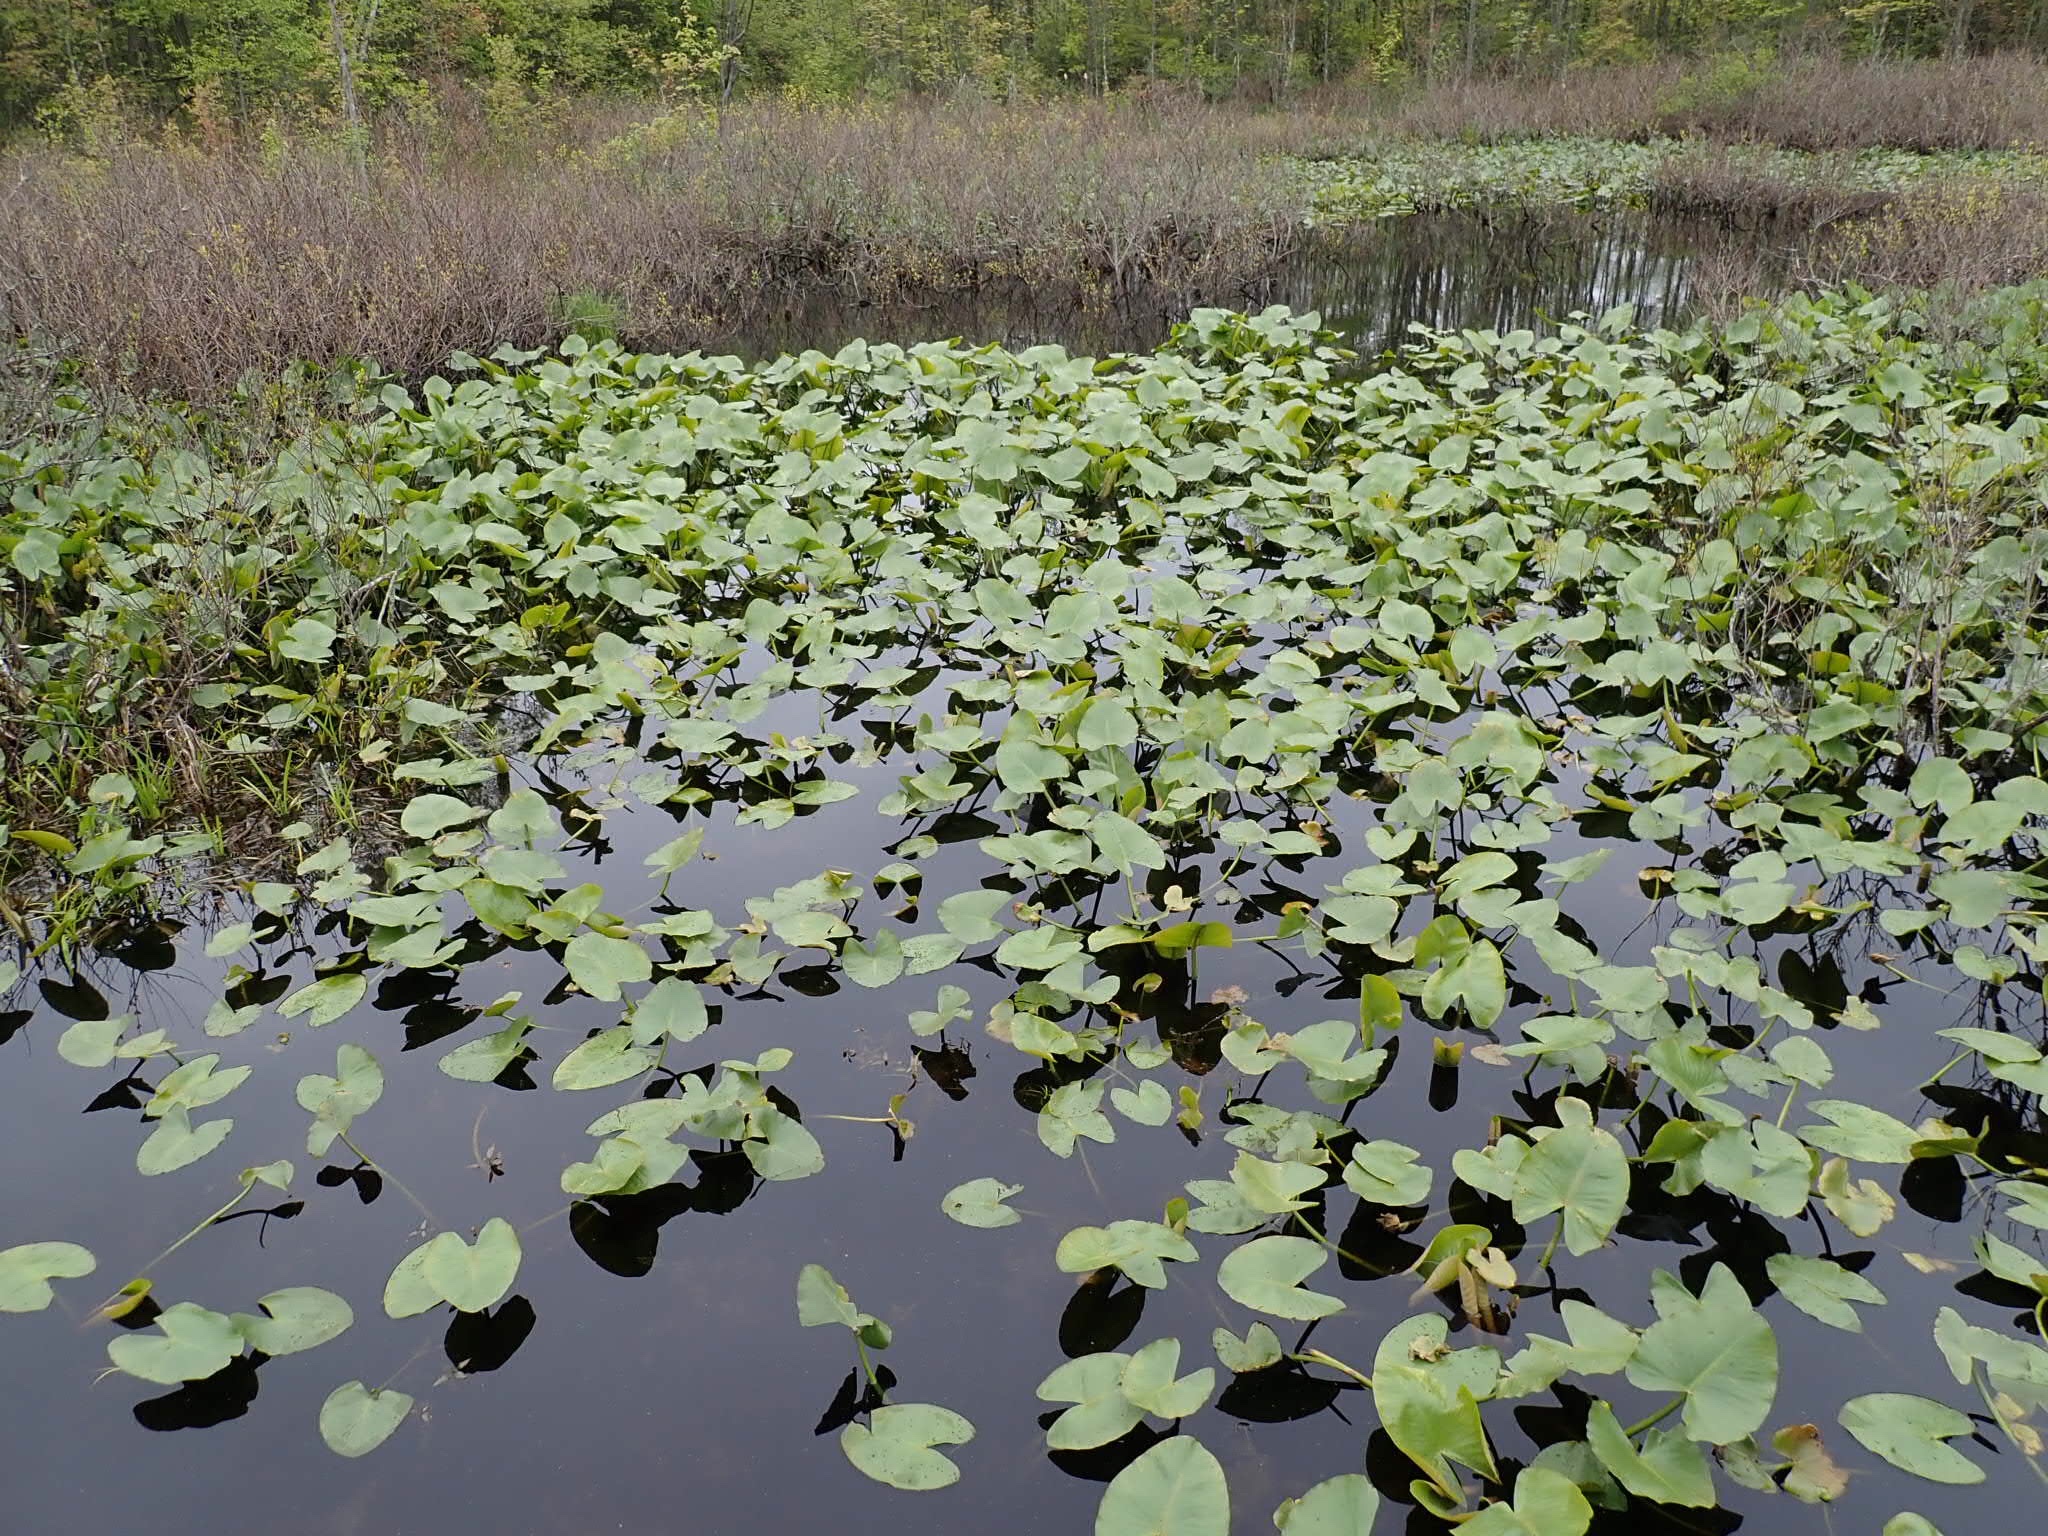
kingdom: Plantae
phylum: Tracheophyta
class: Magnoliopsida
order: Nymphaeales
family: Nymphaeaceae
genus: Nuphar
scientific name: Nuphar advena
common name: Spatter-dock
